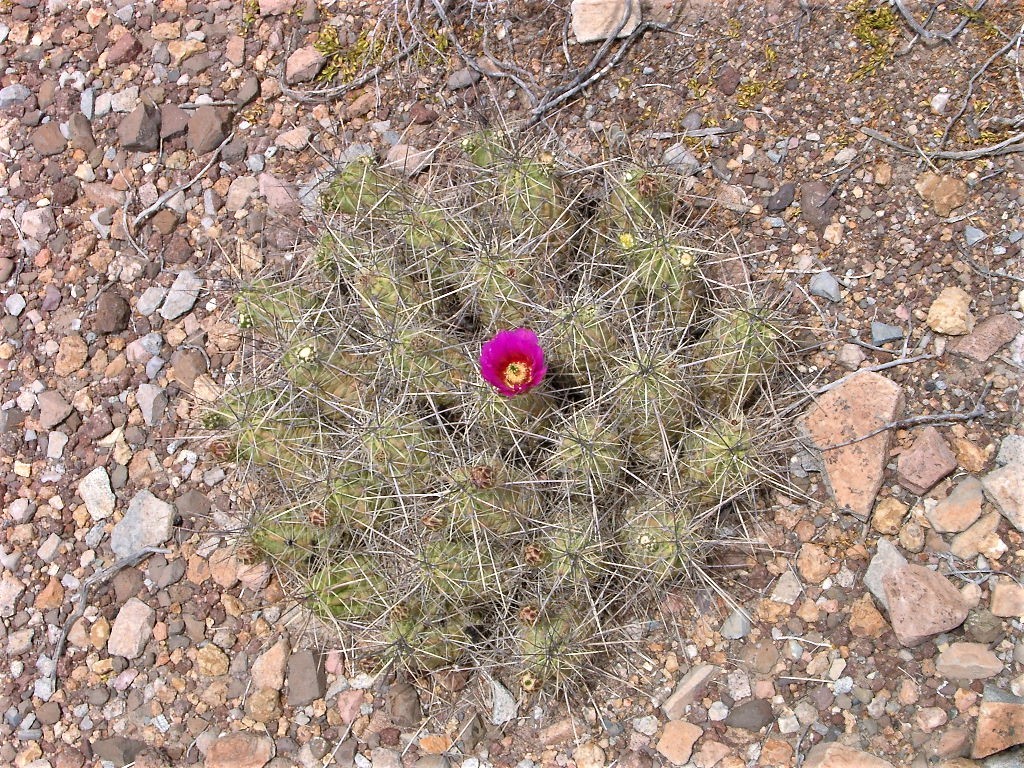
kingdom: Plantae
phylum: Tracheophyta
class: Magnoliopsida
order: Caryophyllales
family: Cactaceae
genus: Echinocereus
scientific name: Echinocereus enneacanthus
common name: Pitaya
